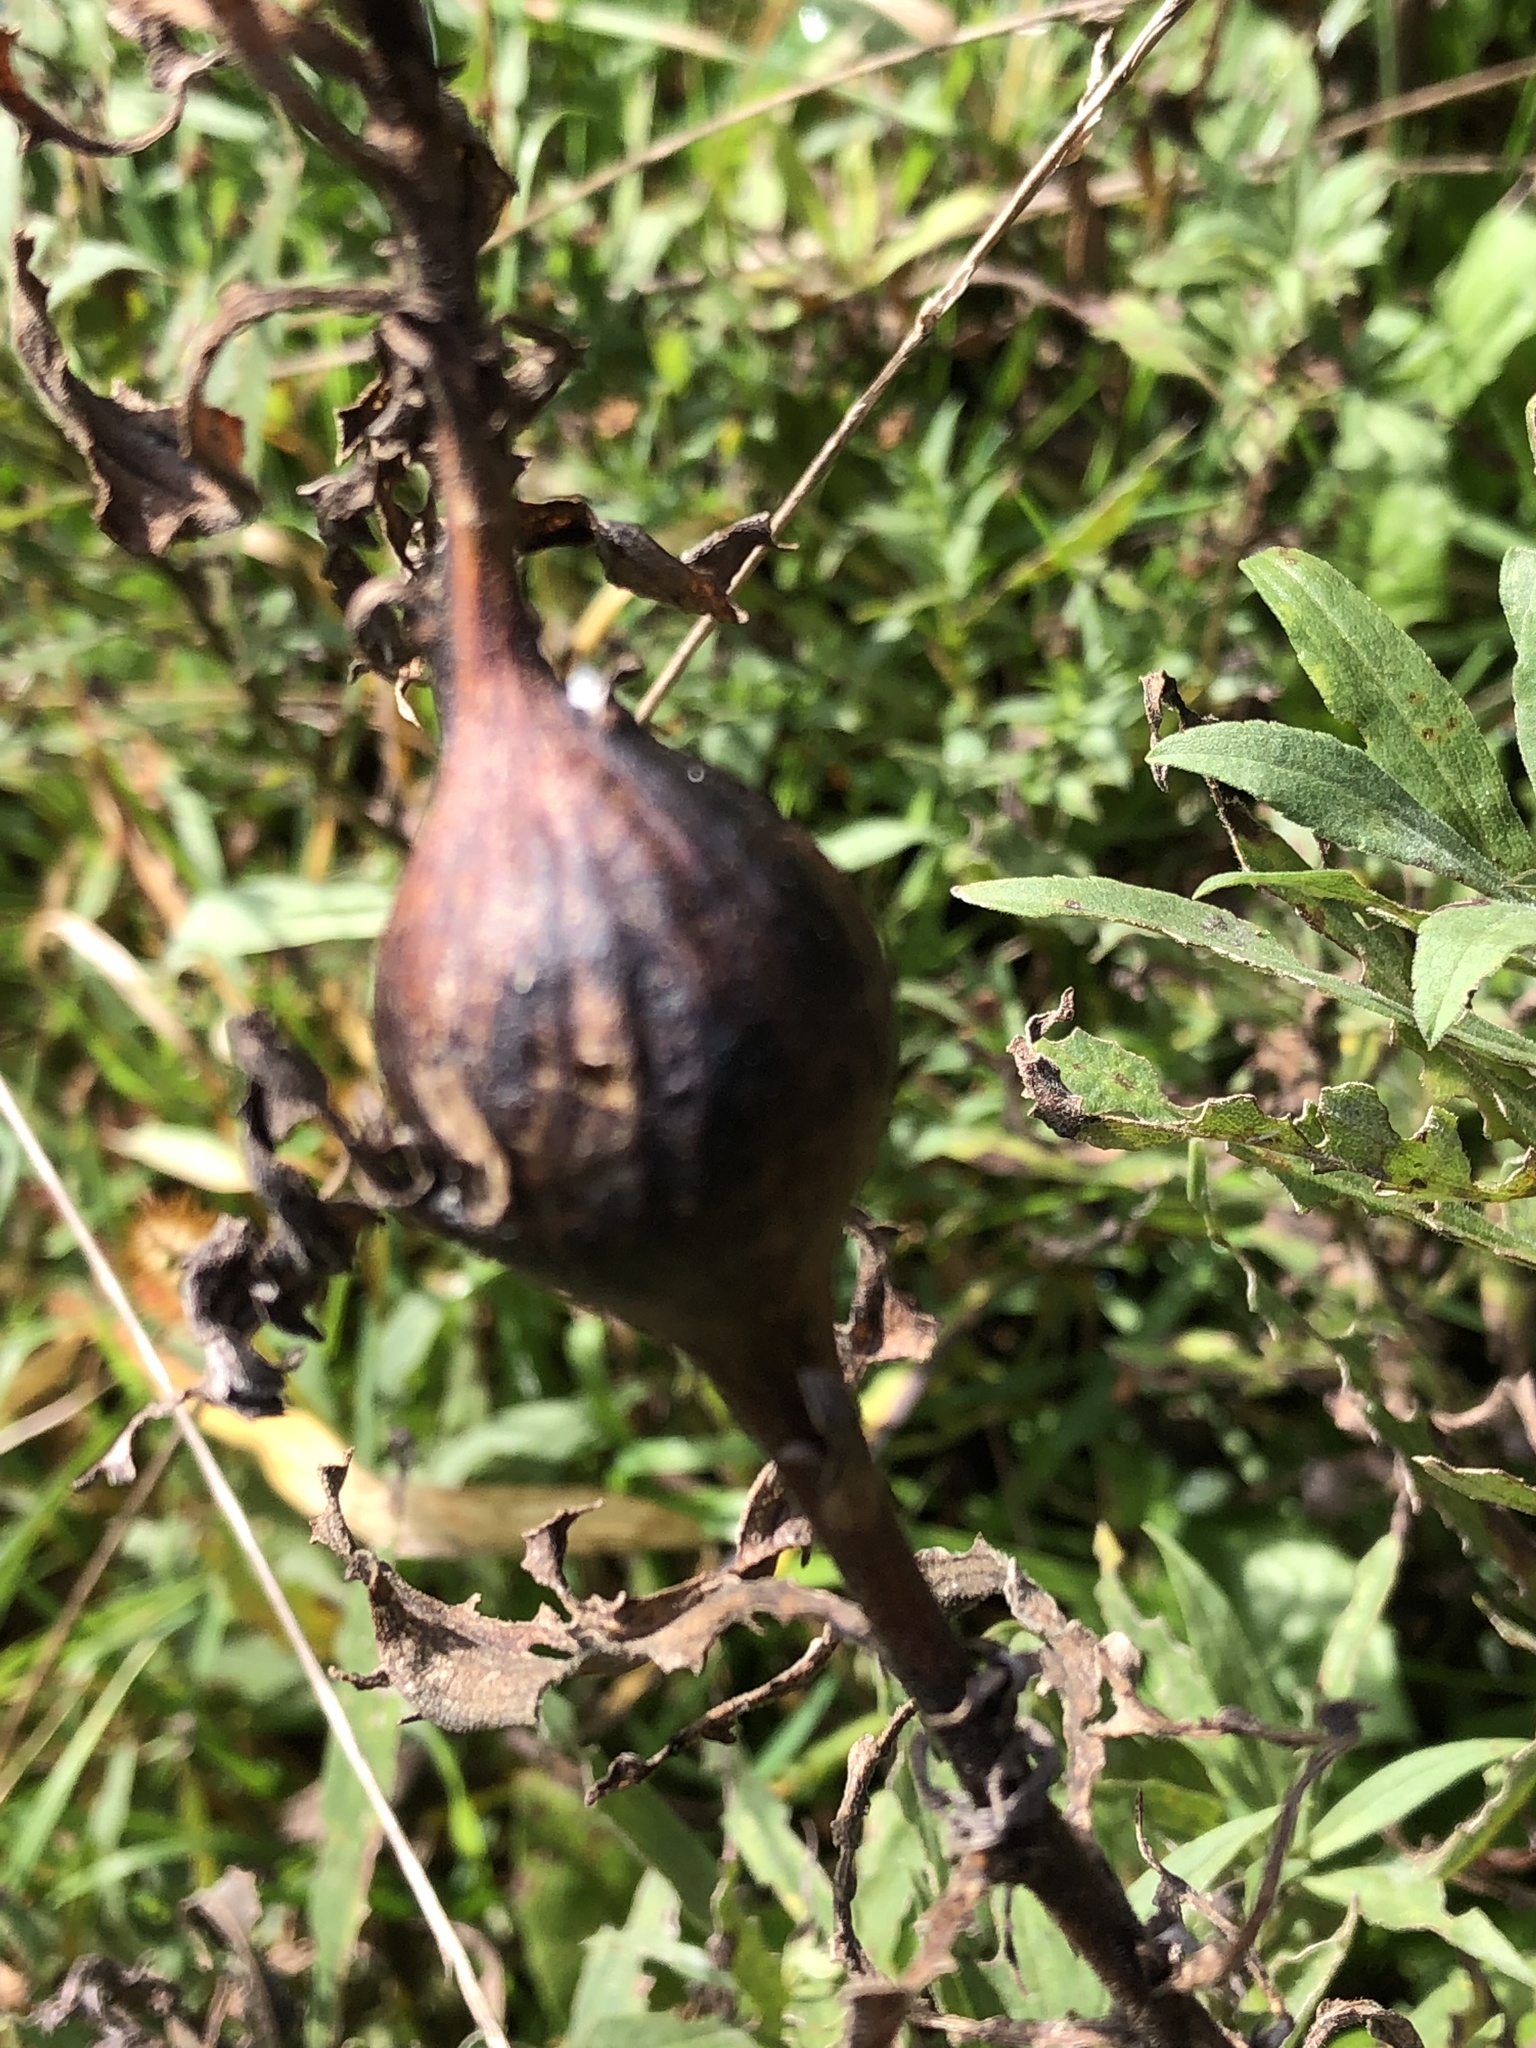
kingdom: Animalia
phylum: Arthropoda
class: Insecta
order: Diptera
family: Tephritidae
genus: Eurosta
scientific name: Eurosta solidaginis
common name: Goldenrod gall fly
